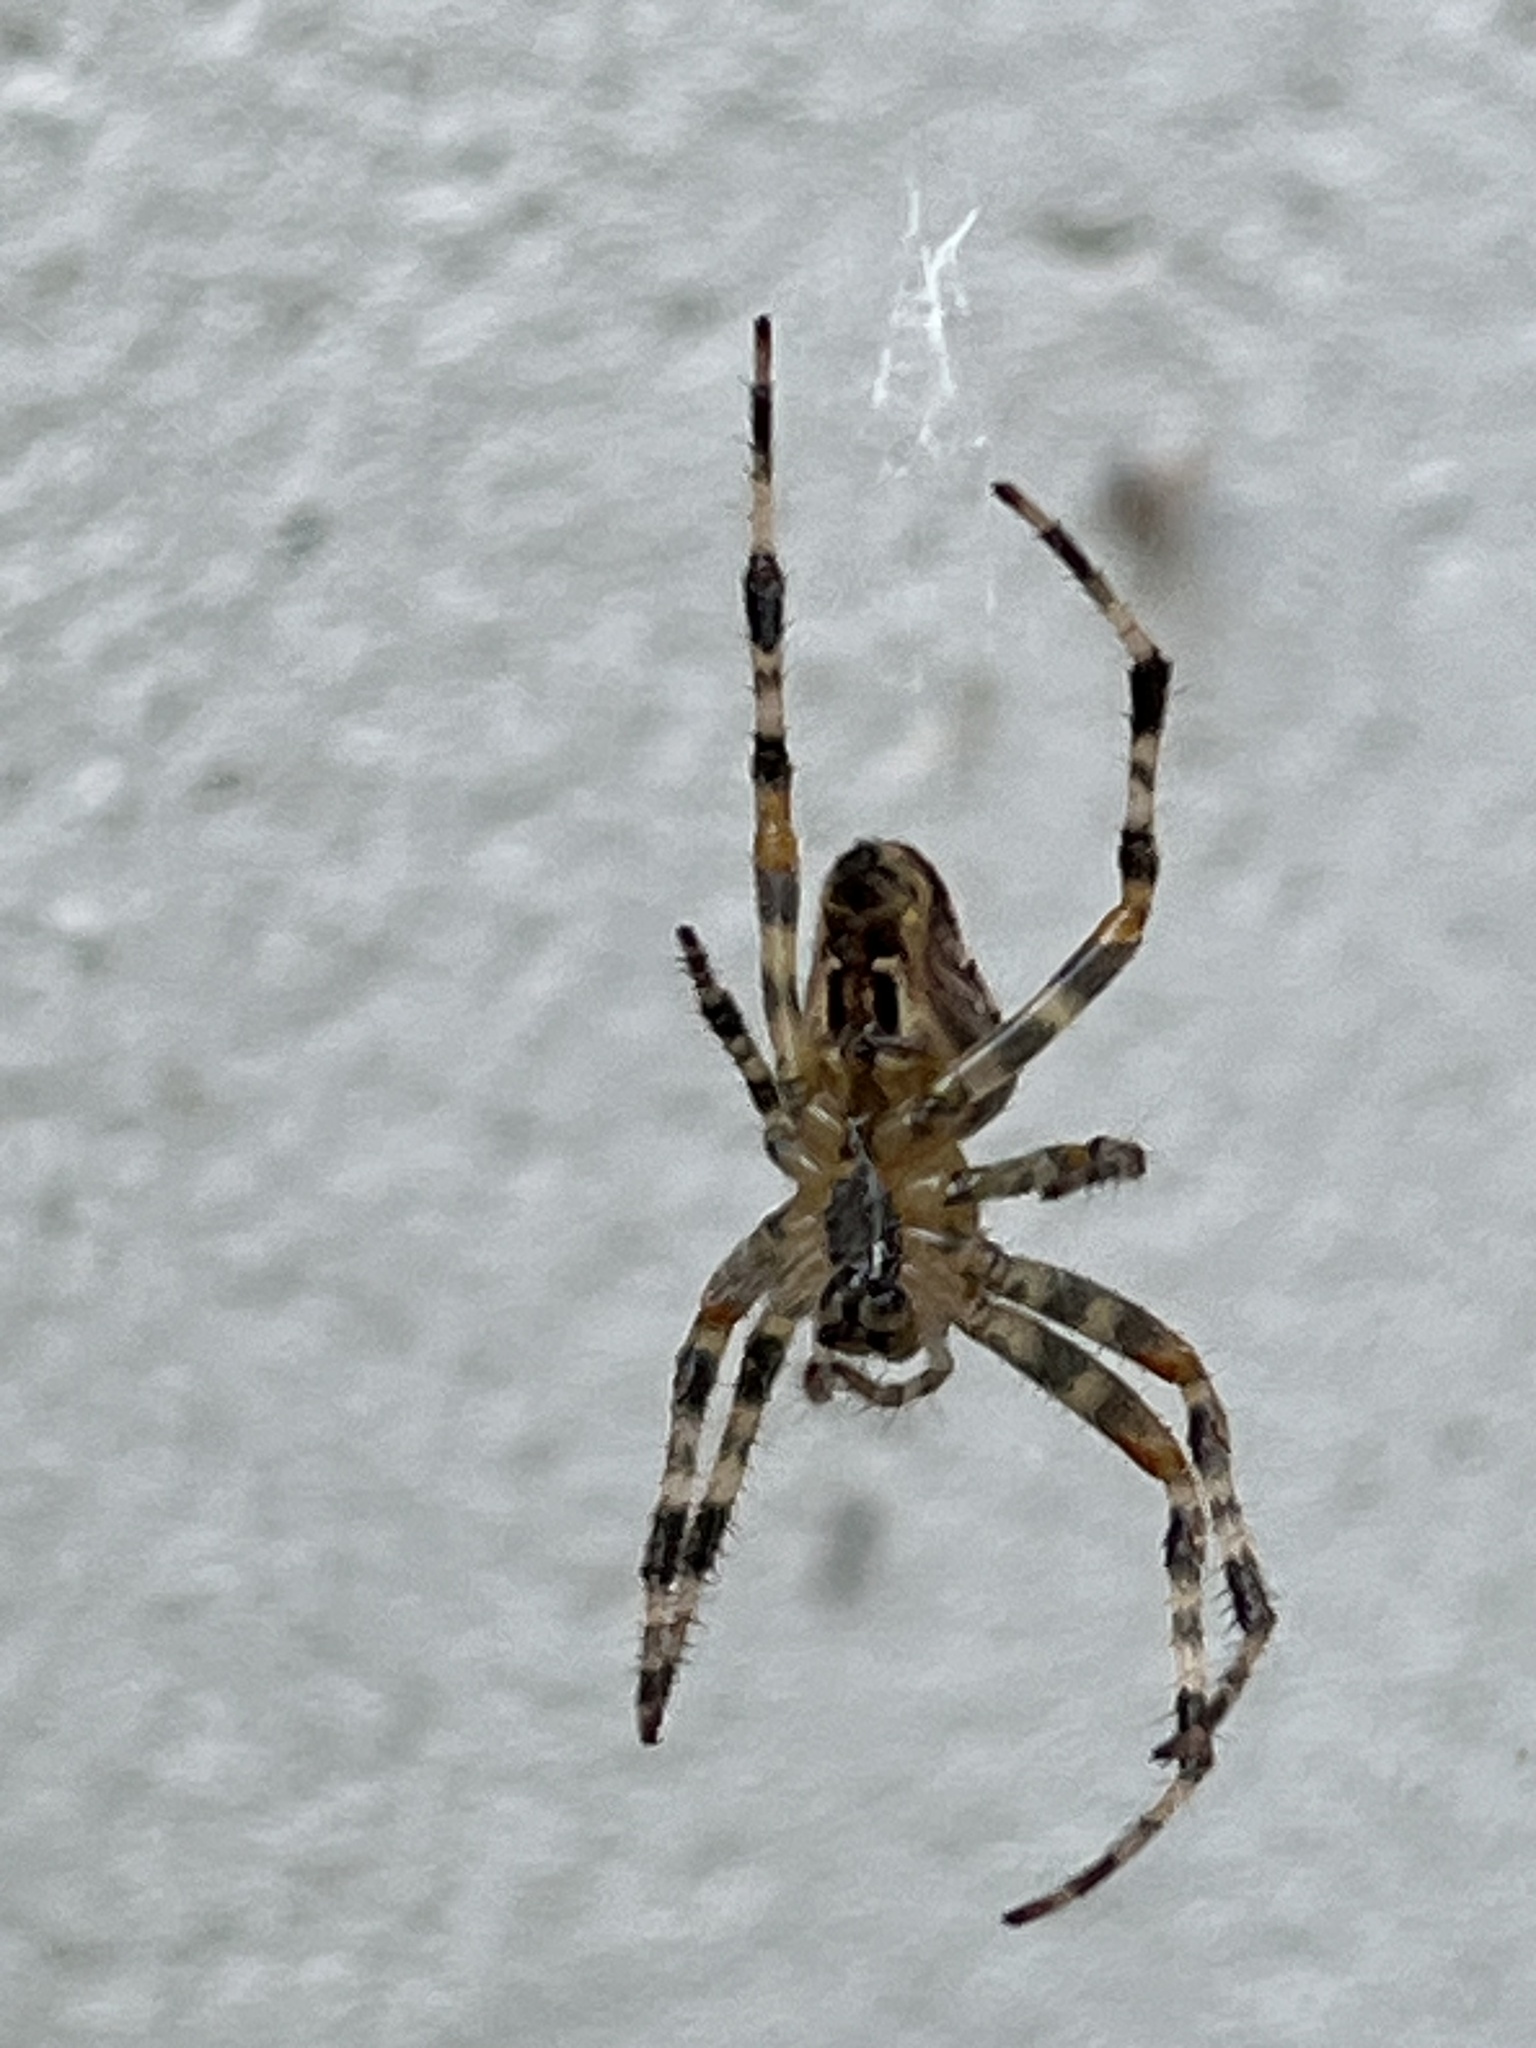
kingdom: Animalia
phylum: Arthropoda
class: Arachnida
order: Araneae
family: Araneidae
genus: Araneus
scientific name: Araneus diadematus
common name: Cross orbweaver
